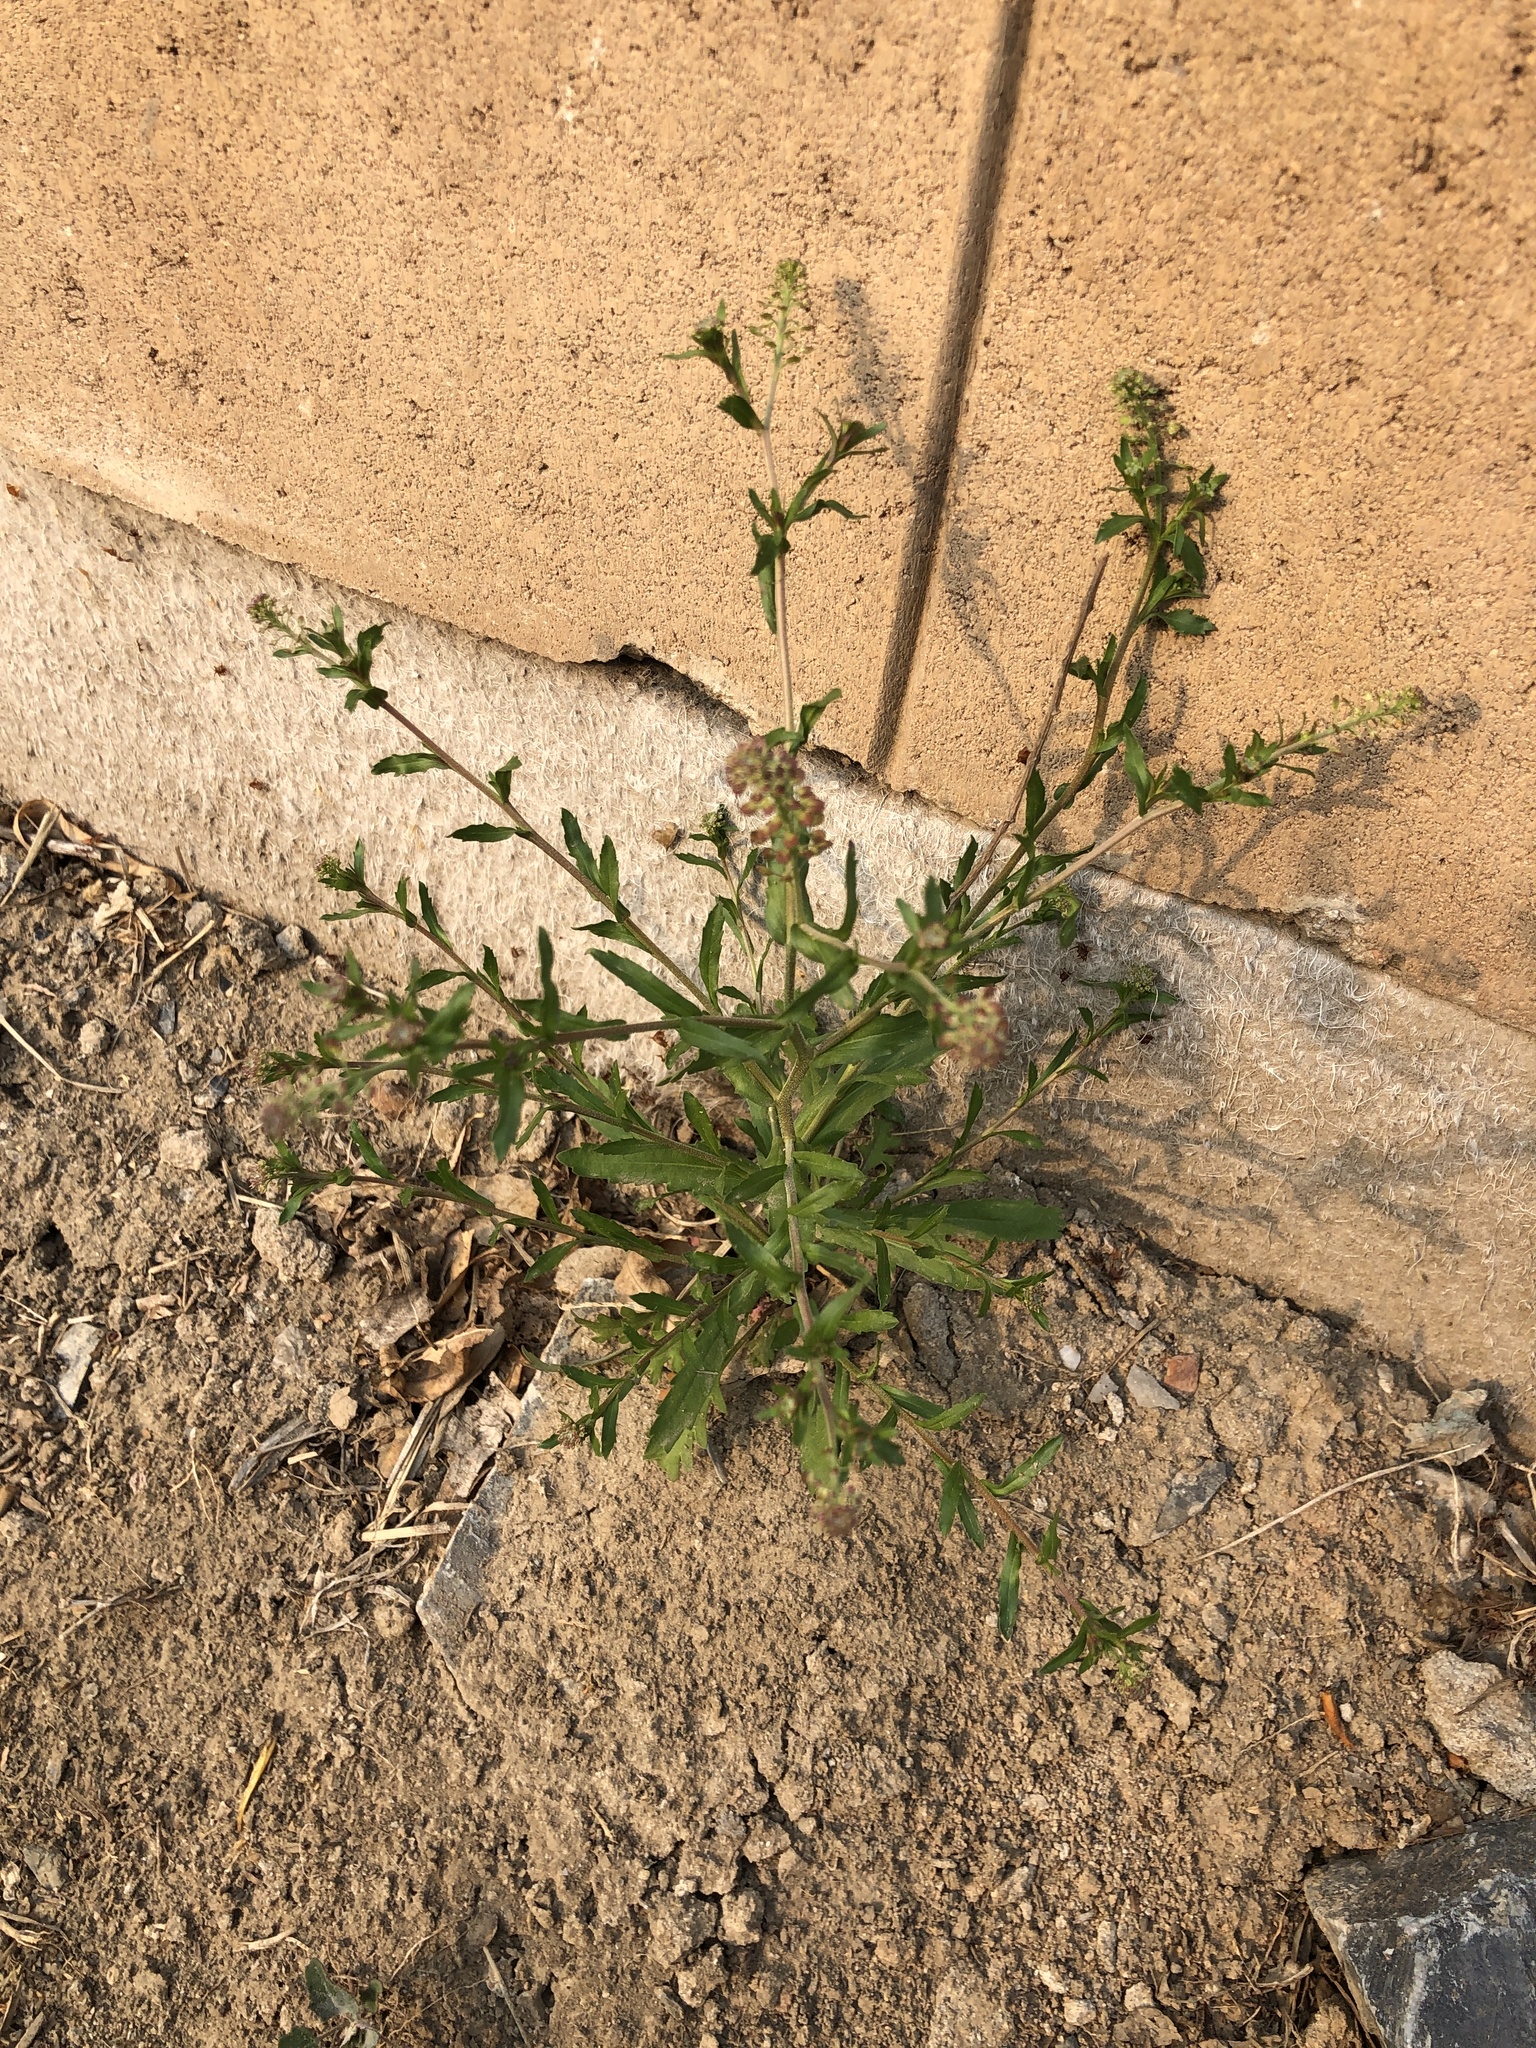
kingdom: Plantae
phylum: Tracheophyta
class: Magnoliopsida
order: Brassicales
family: Brassicaceae
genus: Lepidium
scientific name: Lepidium apetalum
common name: Pepperweed
